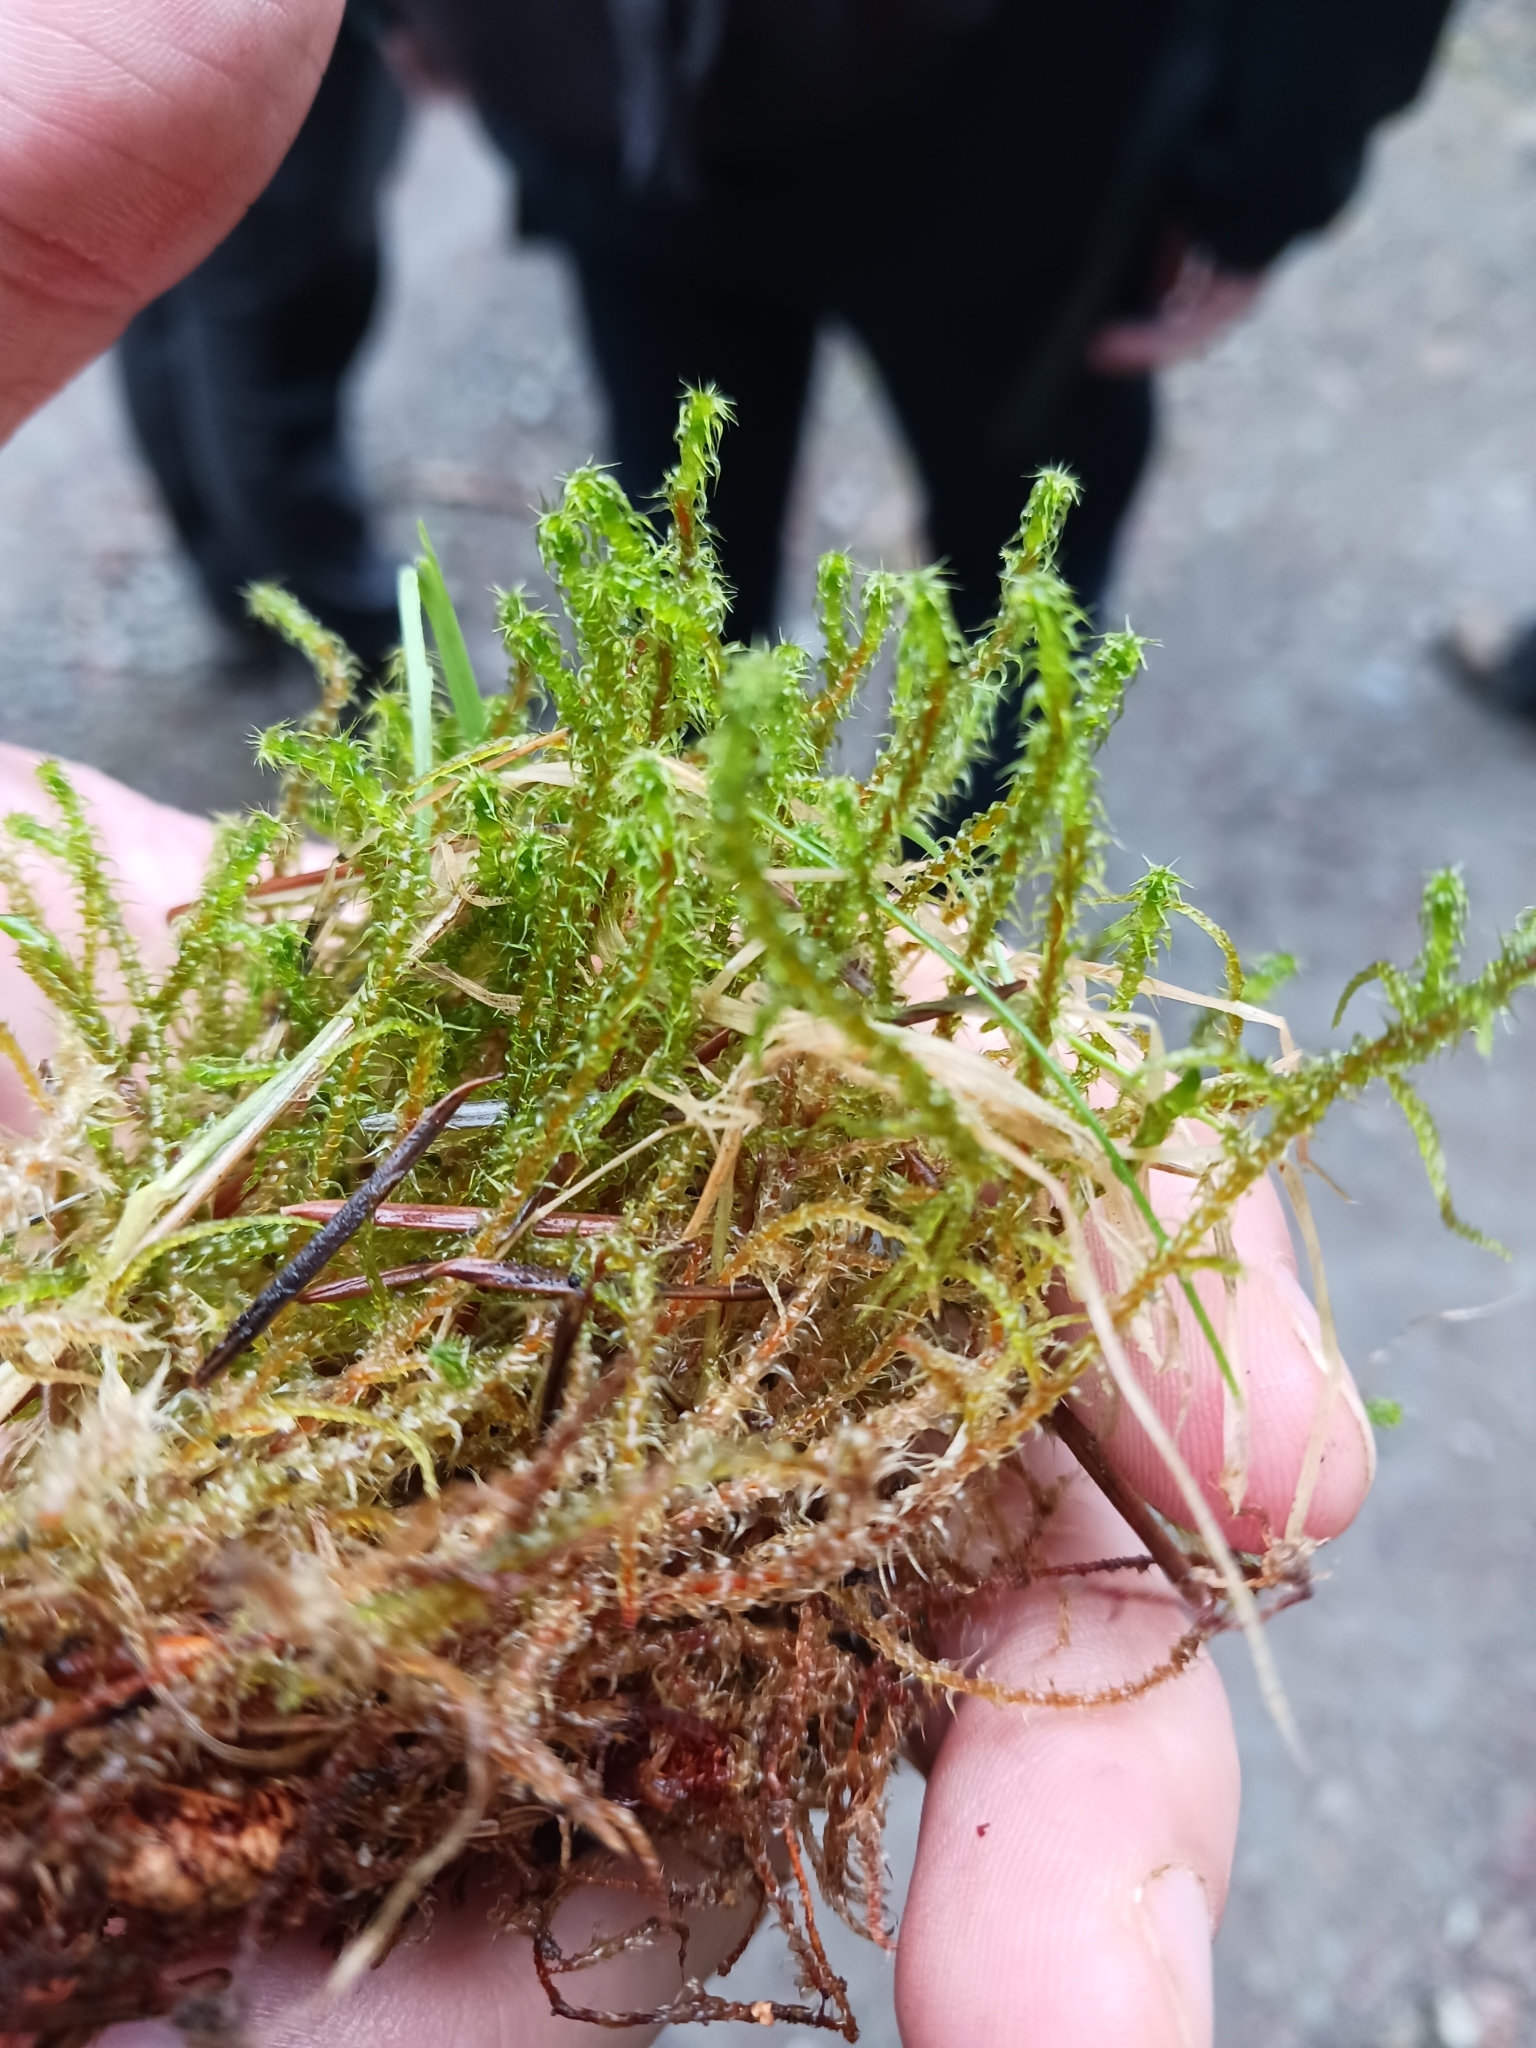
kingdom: Plantae
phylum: Bryophyta
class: Bryopsida
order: Hypnales
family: Hylocomiaceae
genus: Rhytidiadelphus
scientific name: Rhytidiadelphus squarrosus
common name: Springy turf-moss
